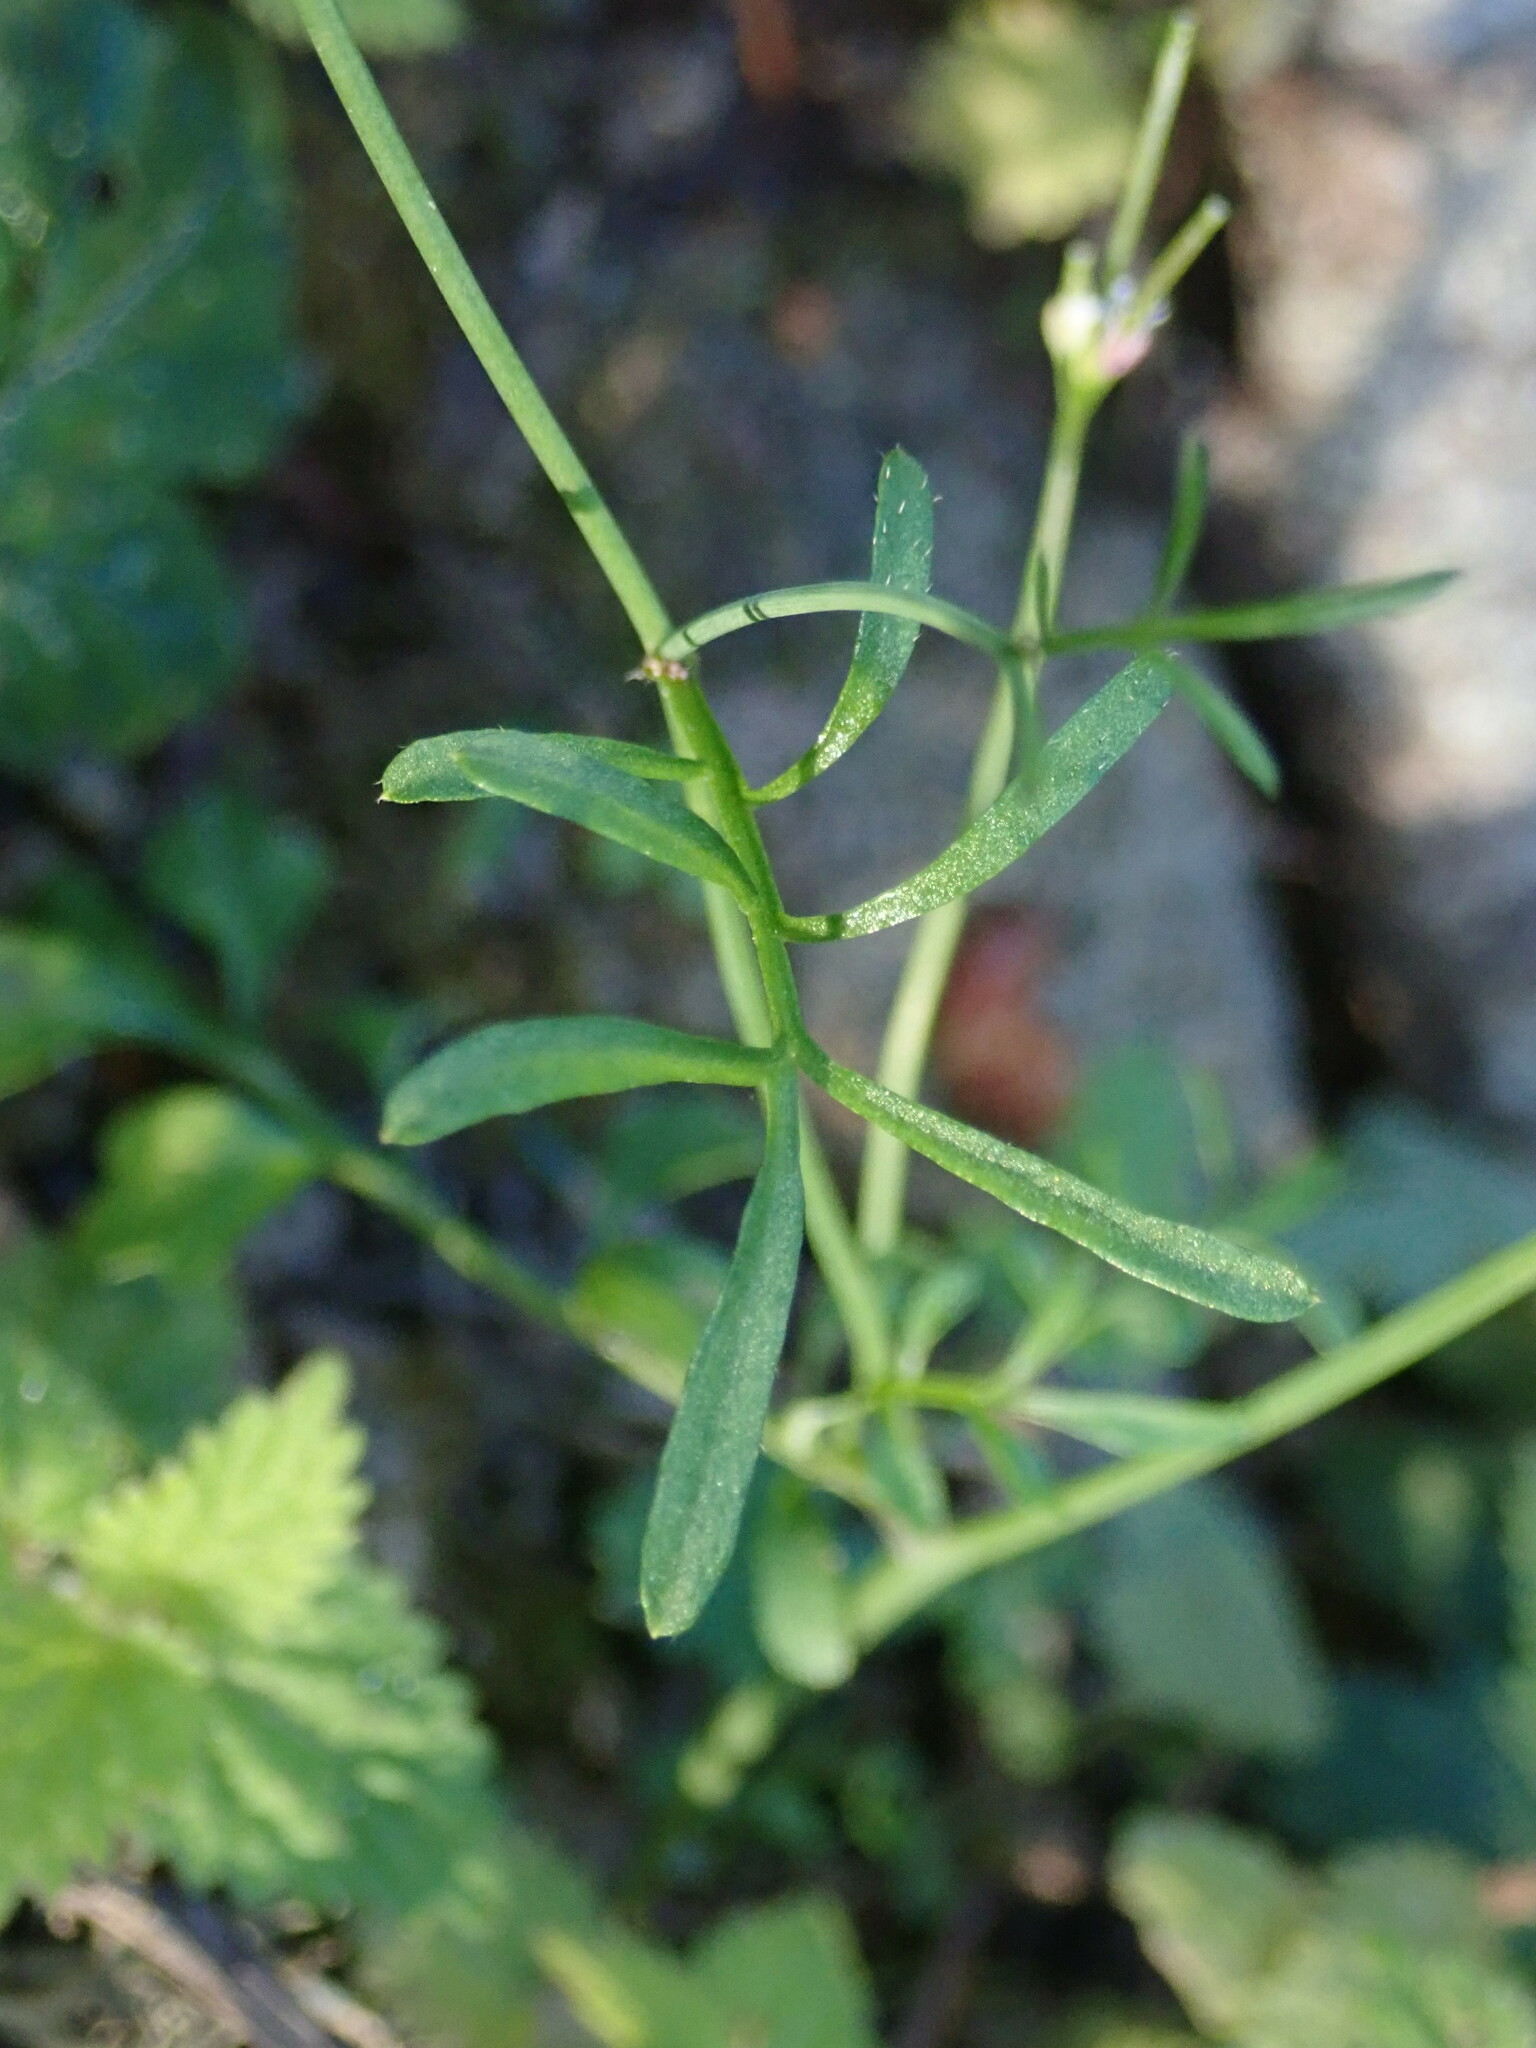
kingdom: Plantae
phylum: Tracheophyta
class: Magnoliopsida
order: Brassicales
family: Brassicaceae
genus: Cardamine
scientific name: Cardamine hirsuta
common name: Hairy bittercress
